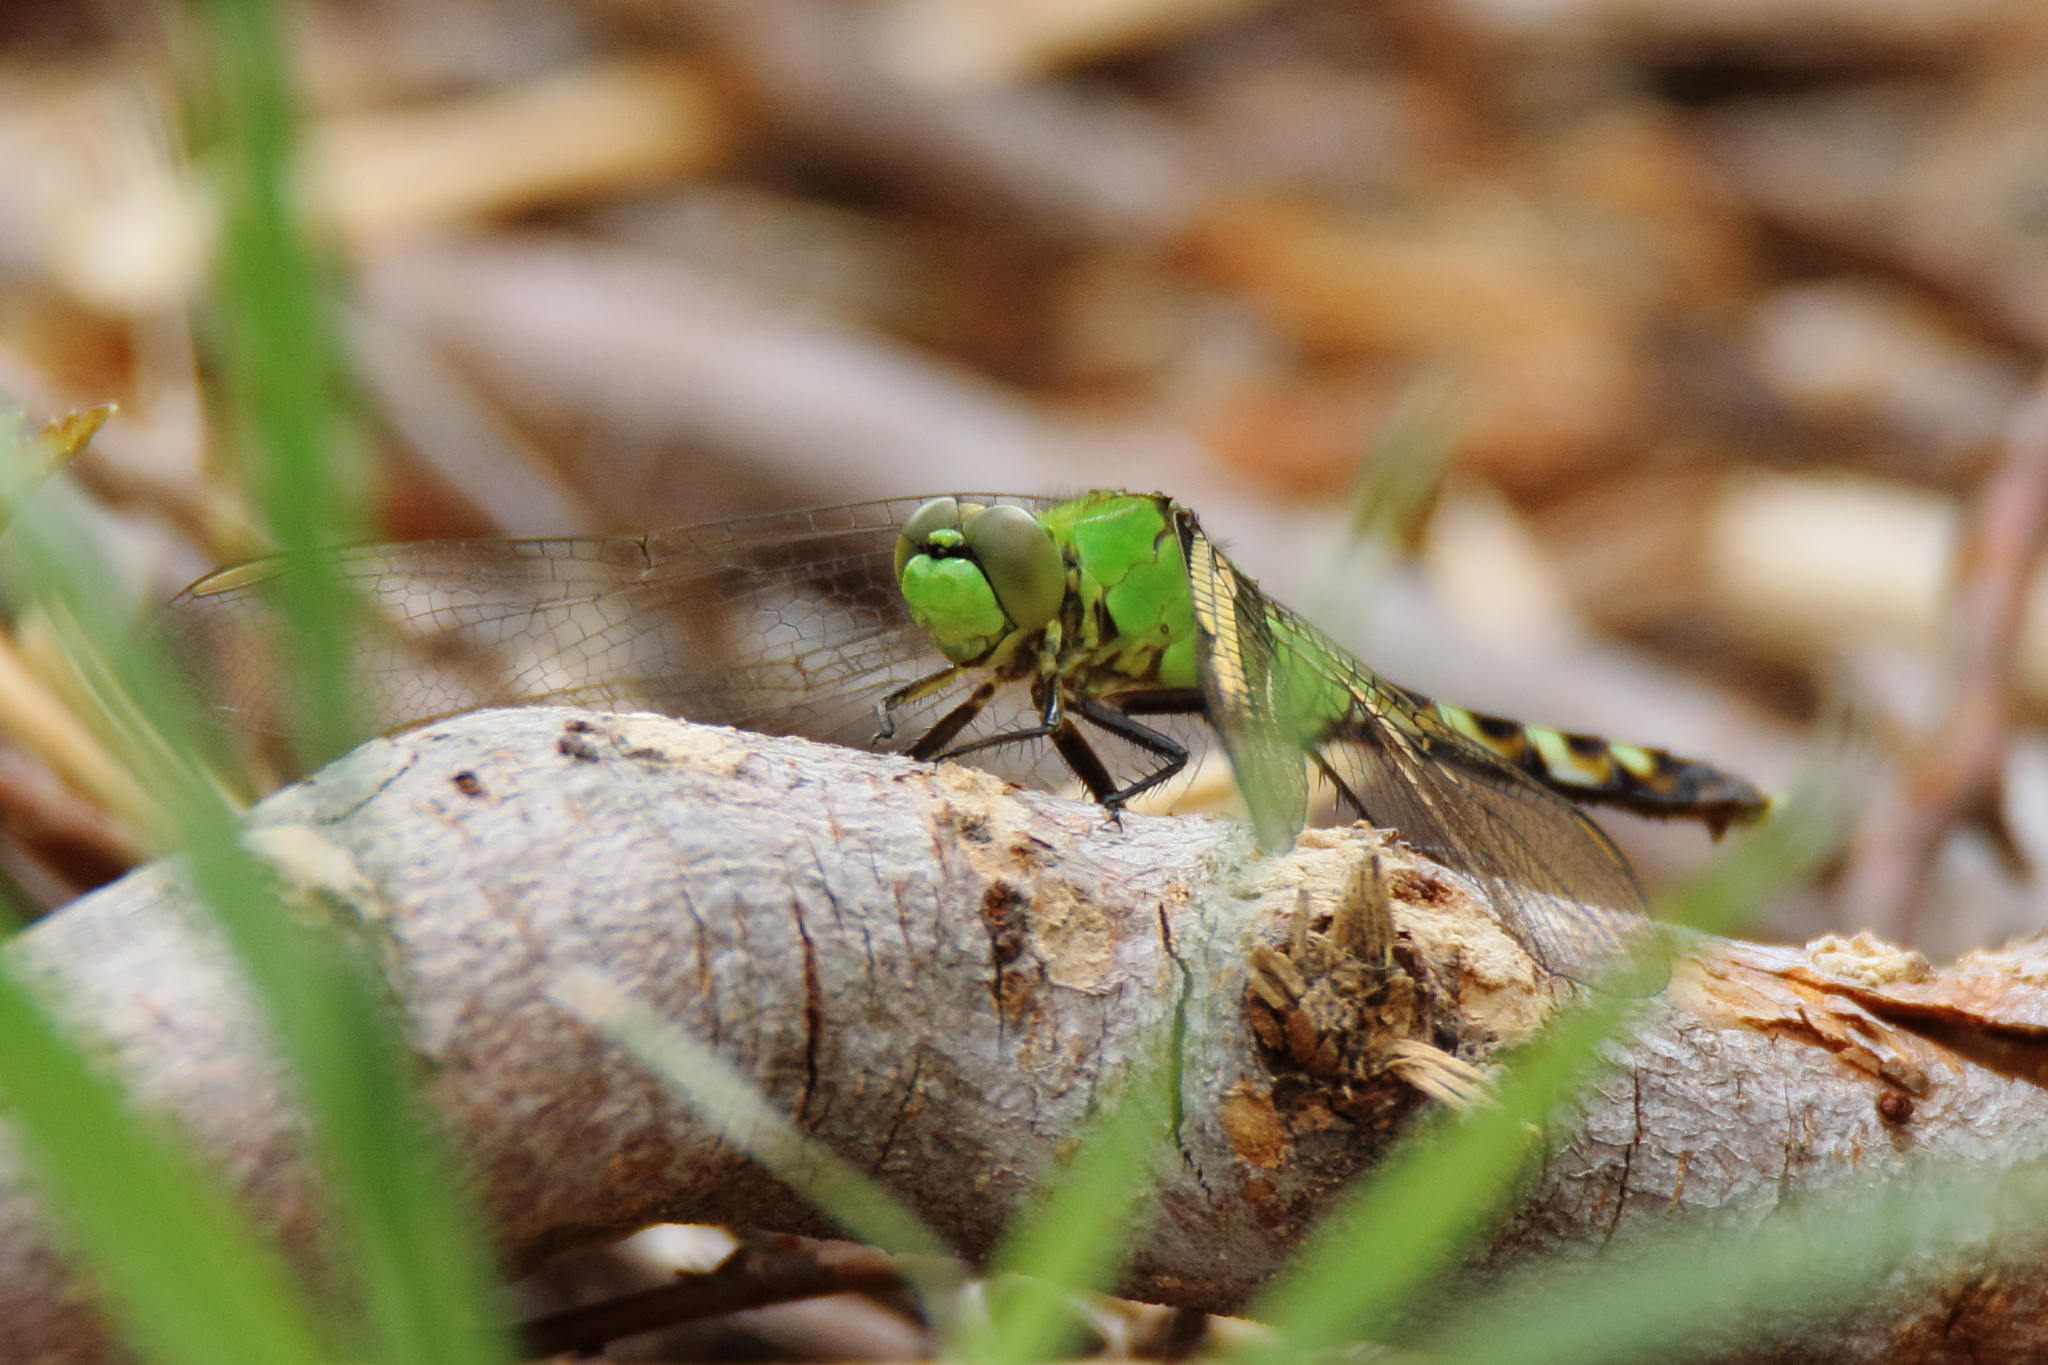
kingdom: Animalia
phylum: Arthropoda
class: Insecta
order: Odonata
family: Libellulidae
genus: Erythemis
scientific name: Erythemis simplicicollis
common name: Eastern pondhawk
